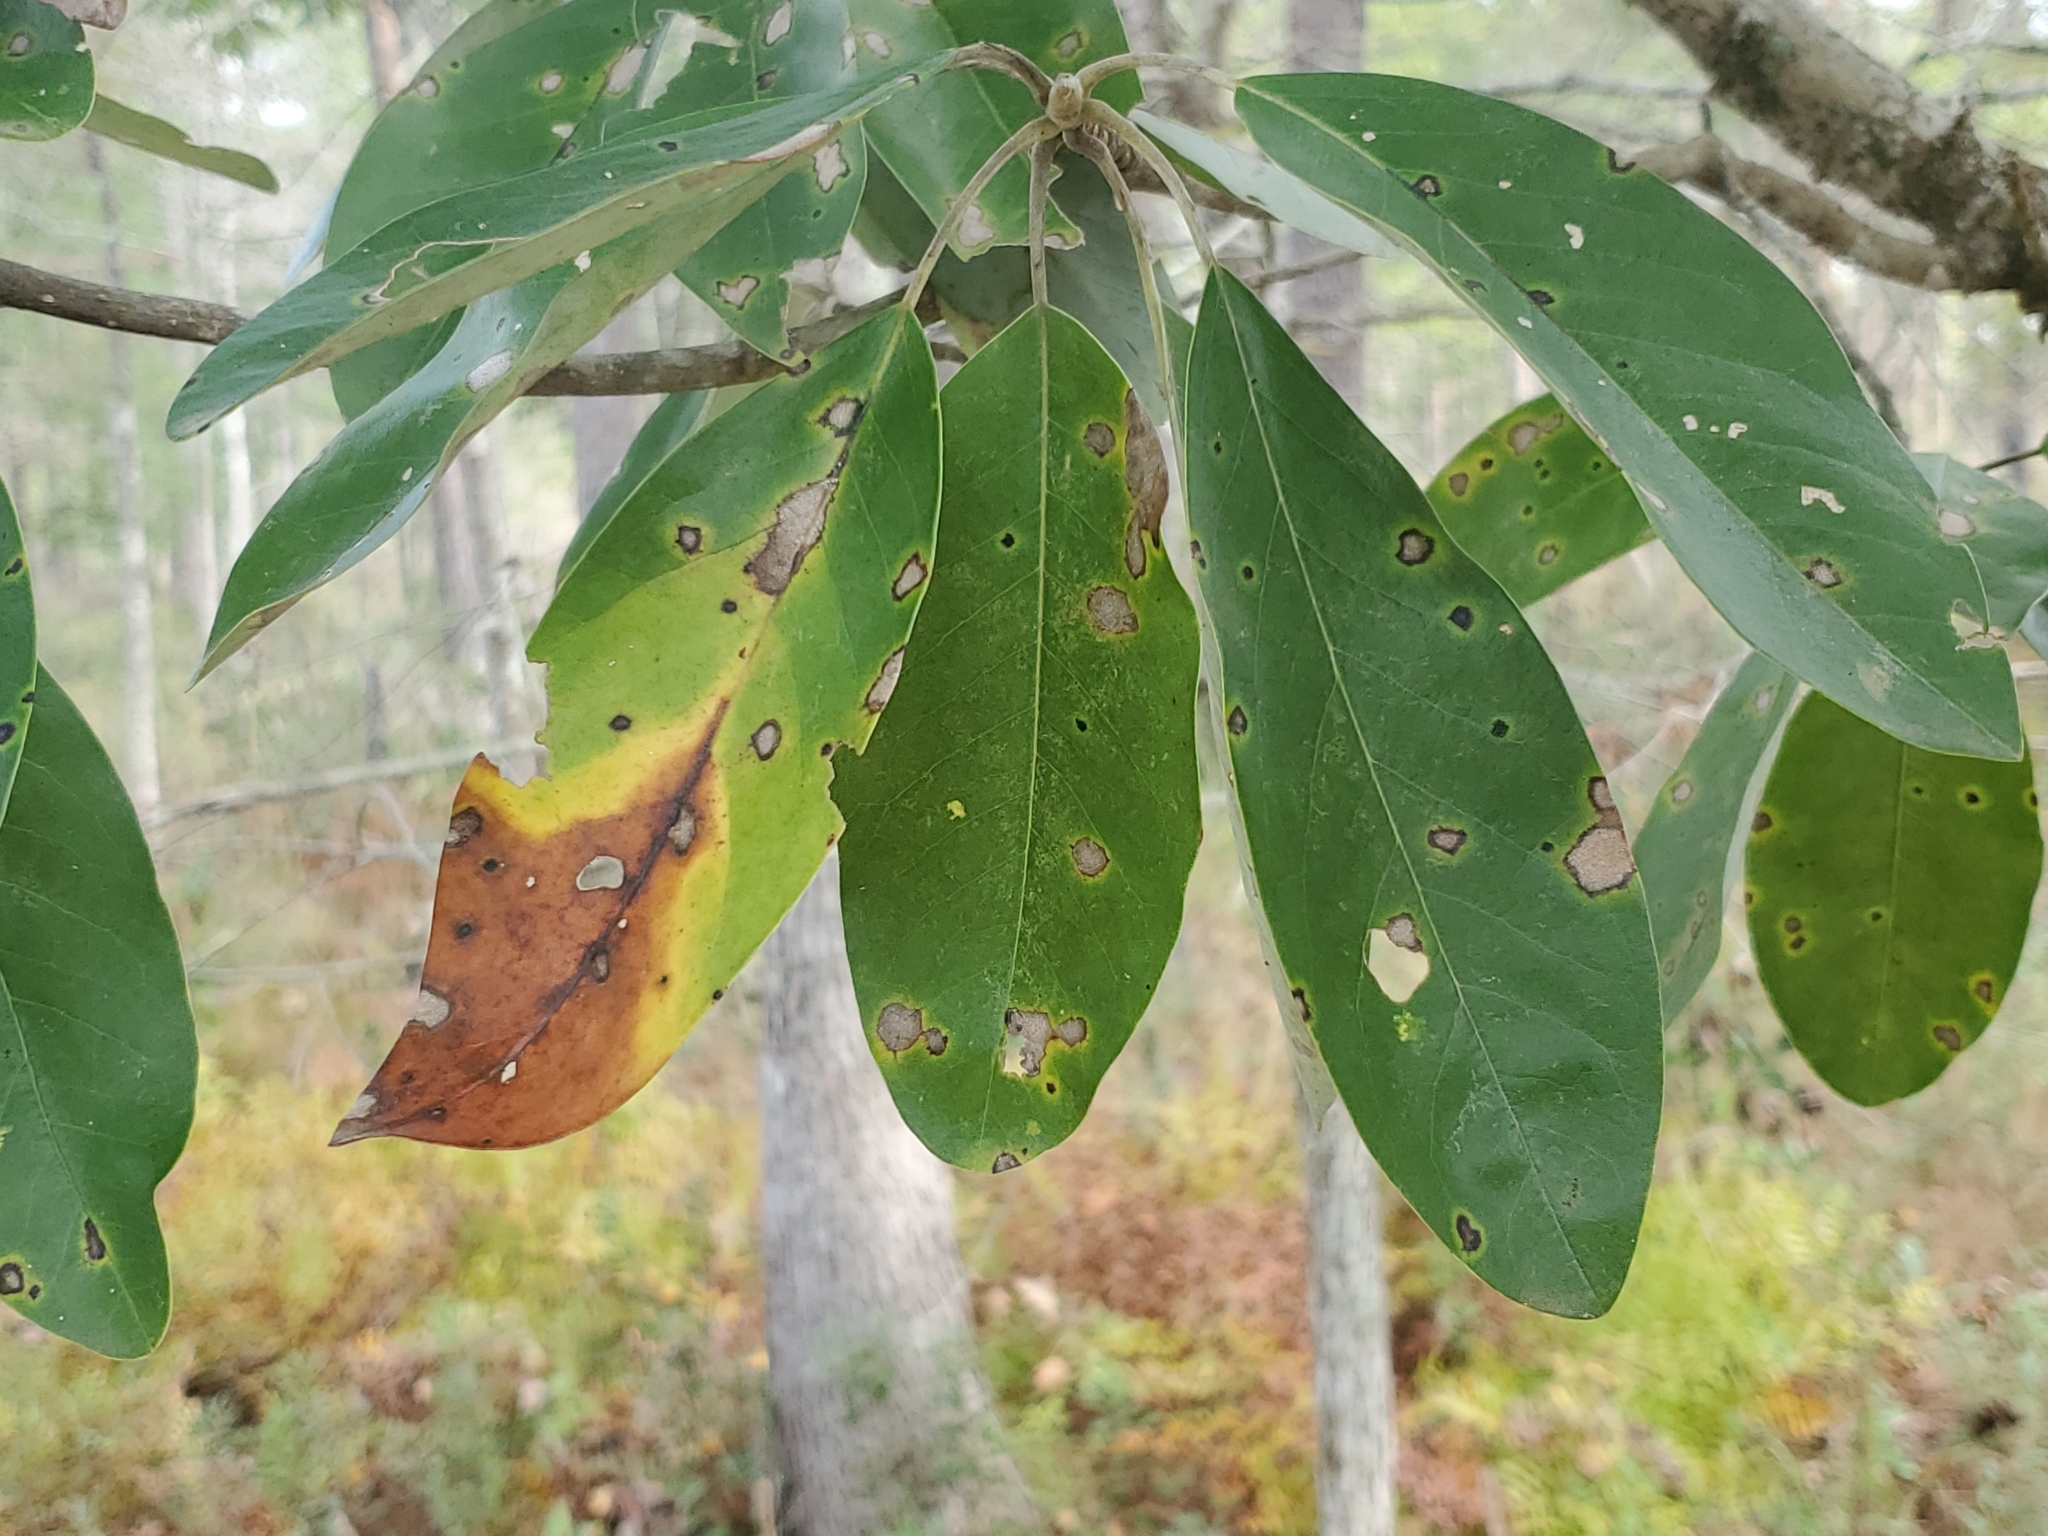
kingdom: Plantae
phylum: Tracheophyta
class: Magnoliopsida
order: Magnoliales
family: Magnoliaceae
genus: Magnolia
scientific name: Magnolia virginiana
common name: Swamp bay
